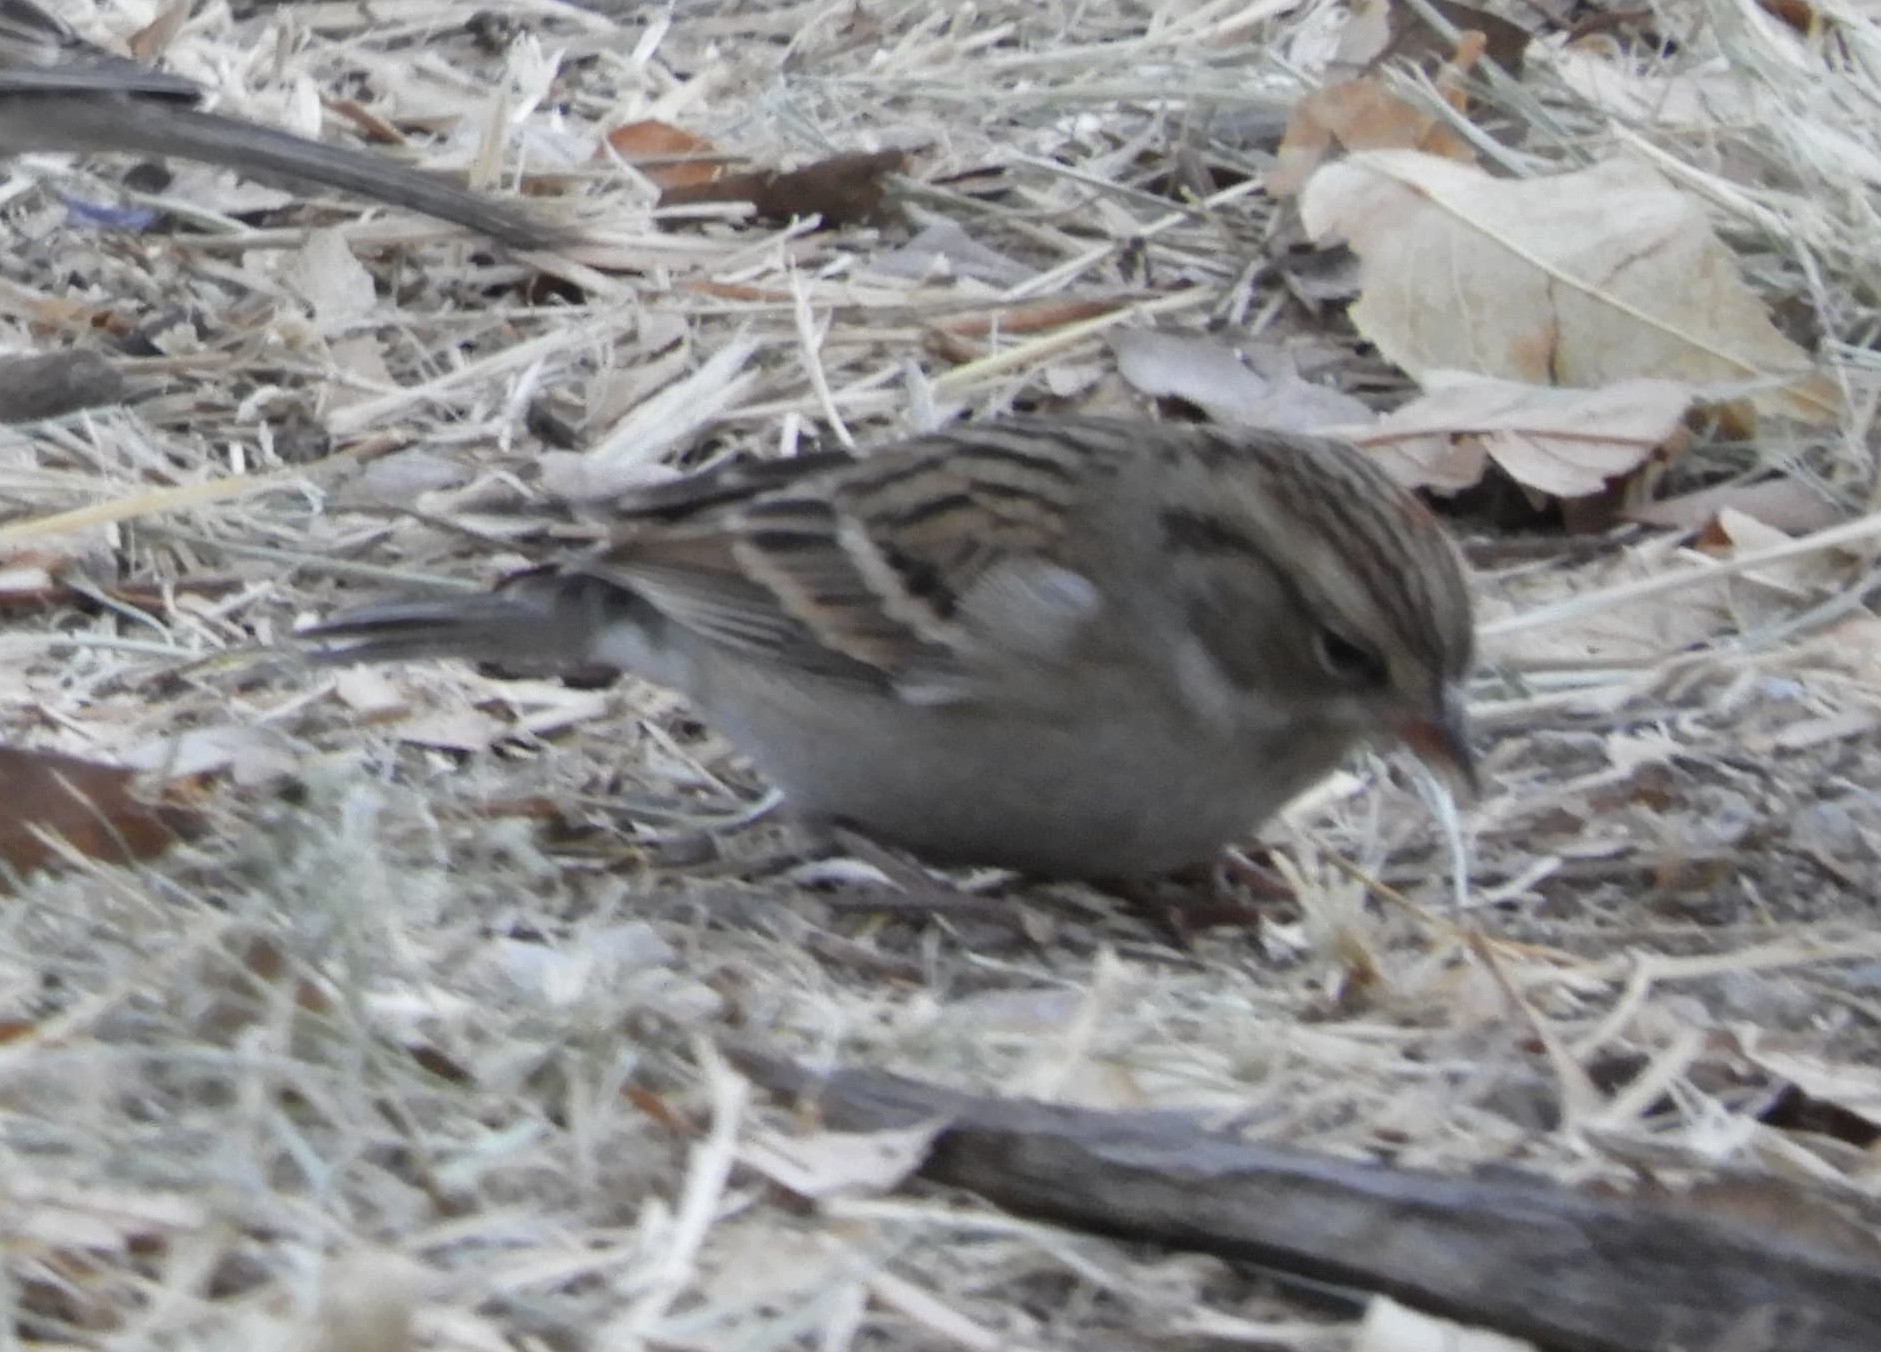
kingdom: Animalia
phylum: Chordata
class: Aves
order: Passeriformes
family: Passerellidae
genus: Spizella
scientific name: Spizella pallida
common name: Clay-colored sparrow
